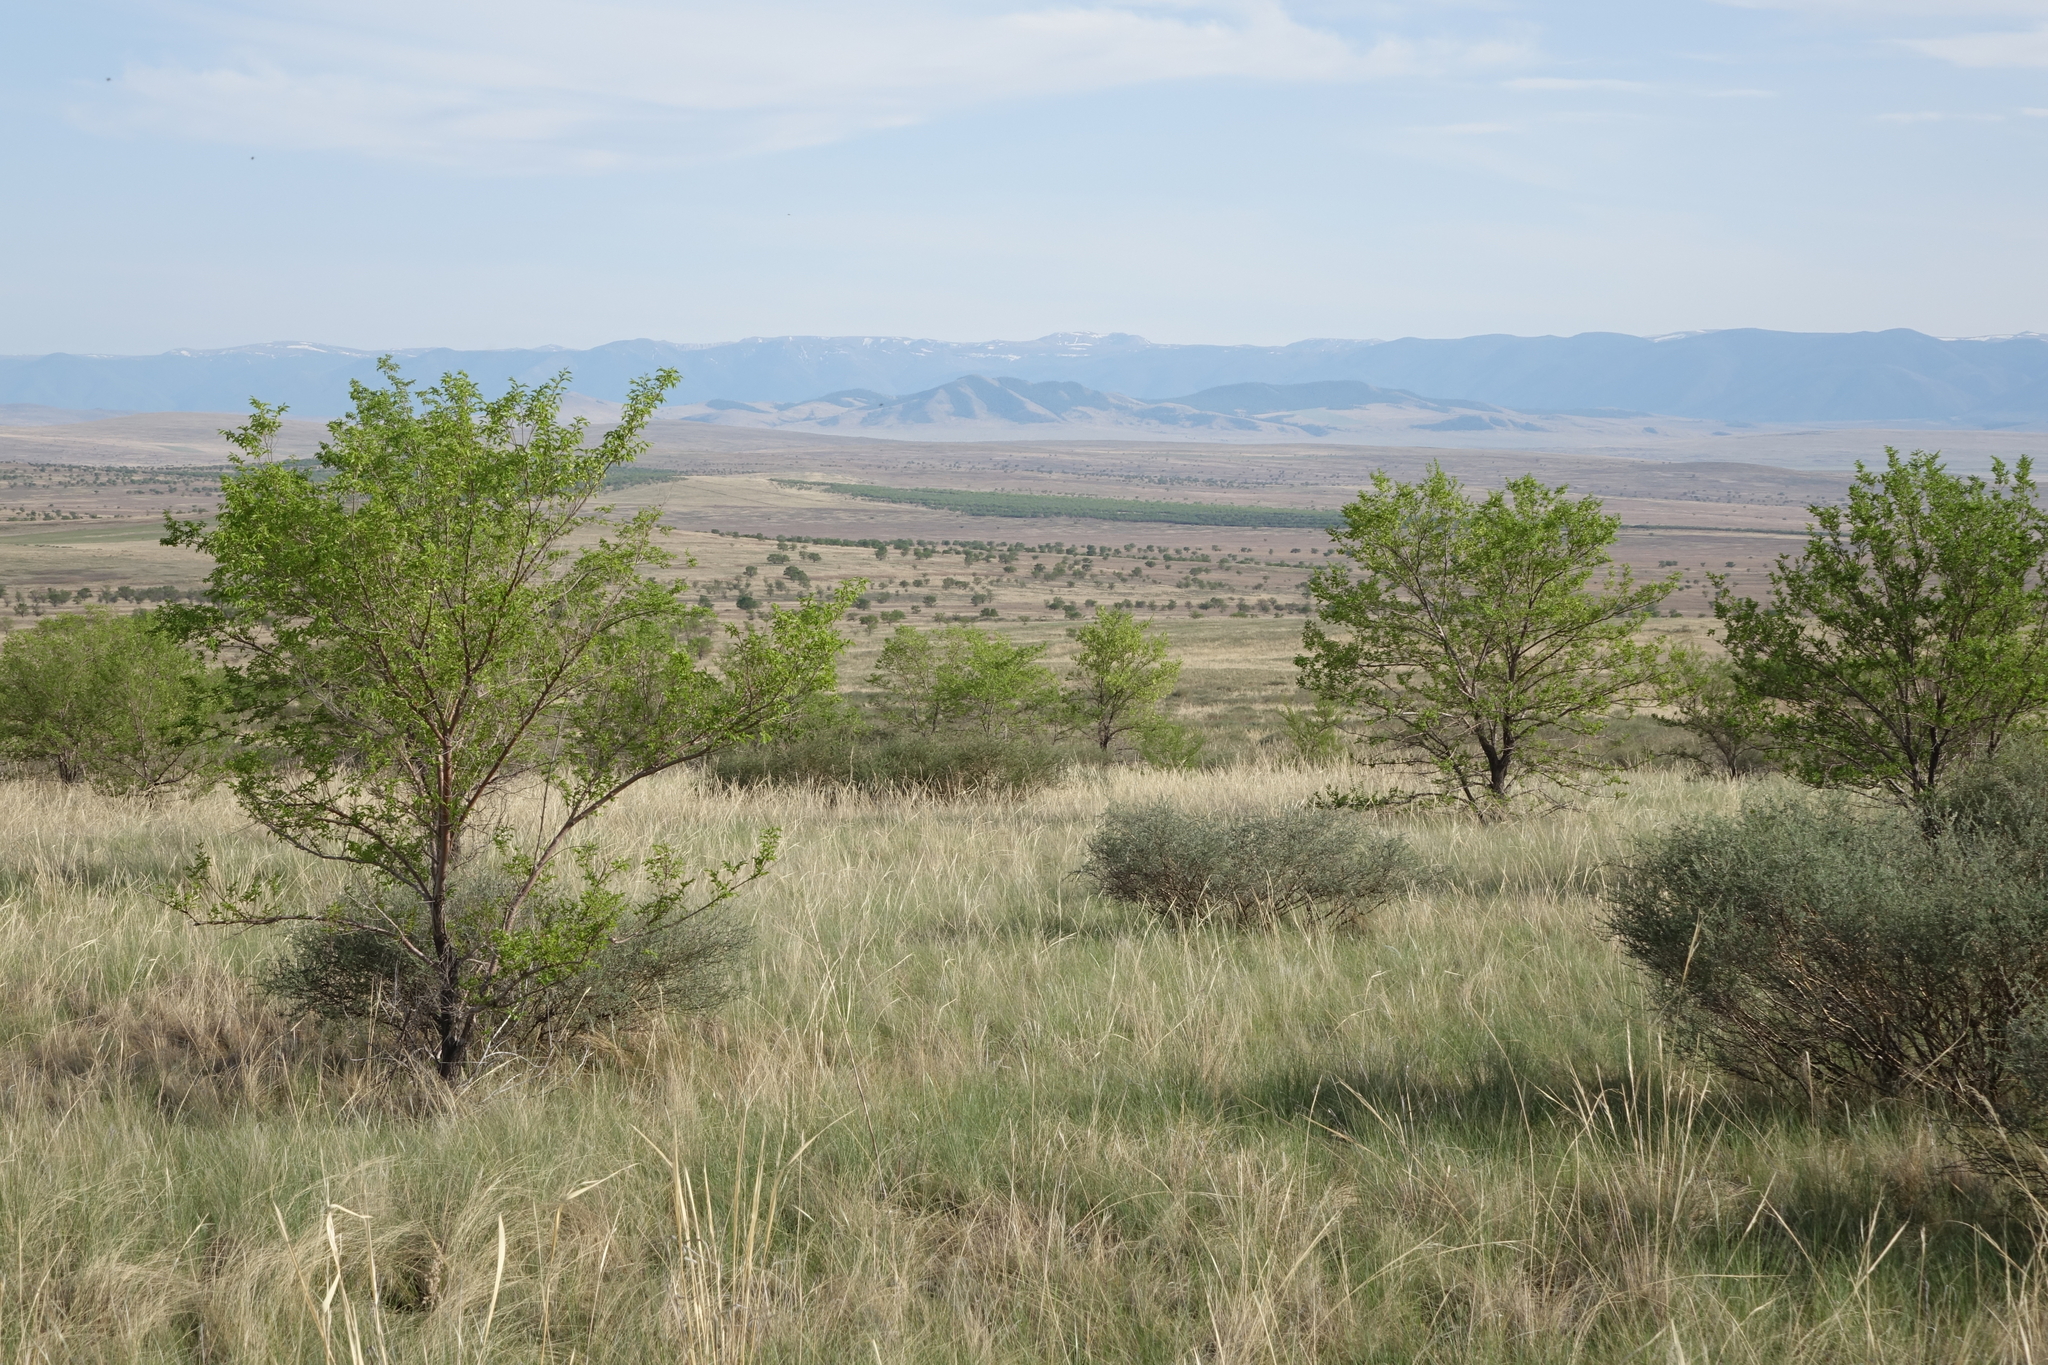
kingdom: Plantae
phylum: Tracheophyta
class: Magnoliopsida
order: Rosales
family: Ulmaceae
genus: Ulmus
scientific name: Ulmus pumila
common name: Siberian elm
